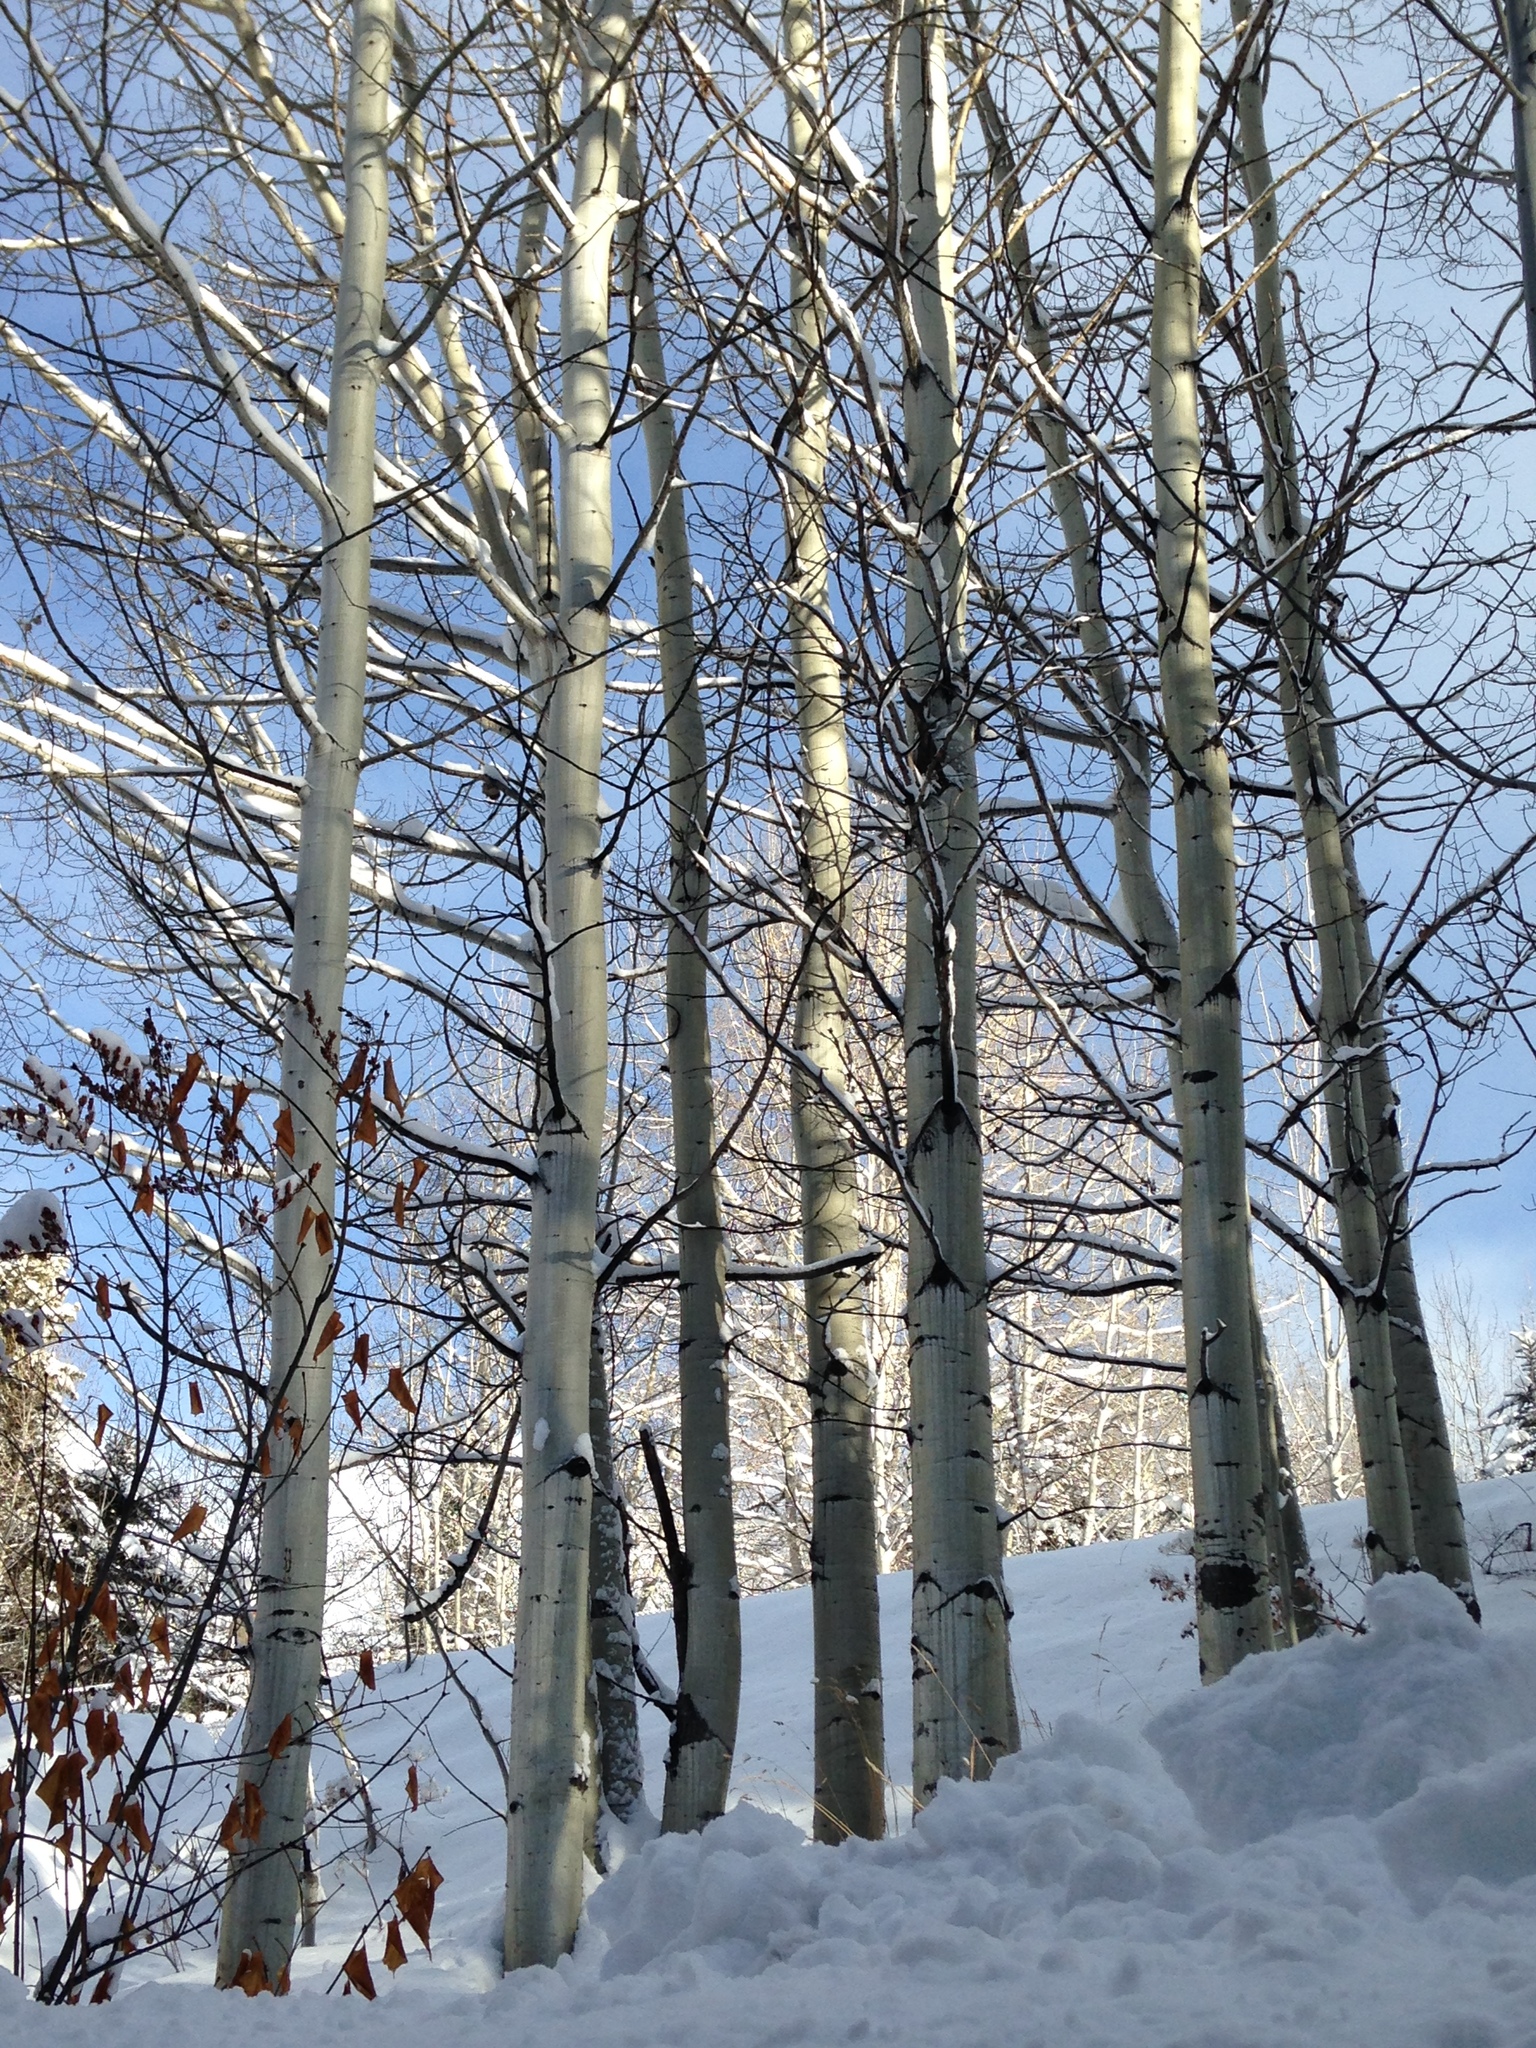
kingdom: Plantae
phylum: Tracheophyta
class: Magnoliopsida
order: Malpighiales
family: Salicaceae
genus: Populus
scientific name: Populus tremuloides
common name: Quaking aspen
